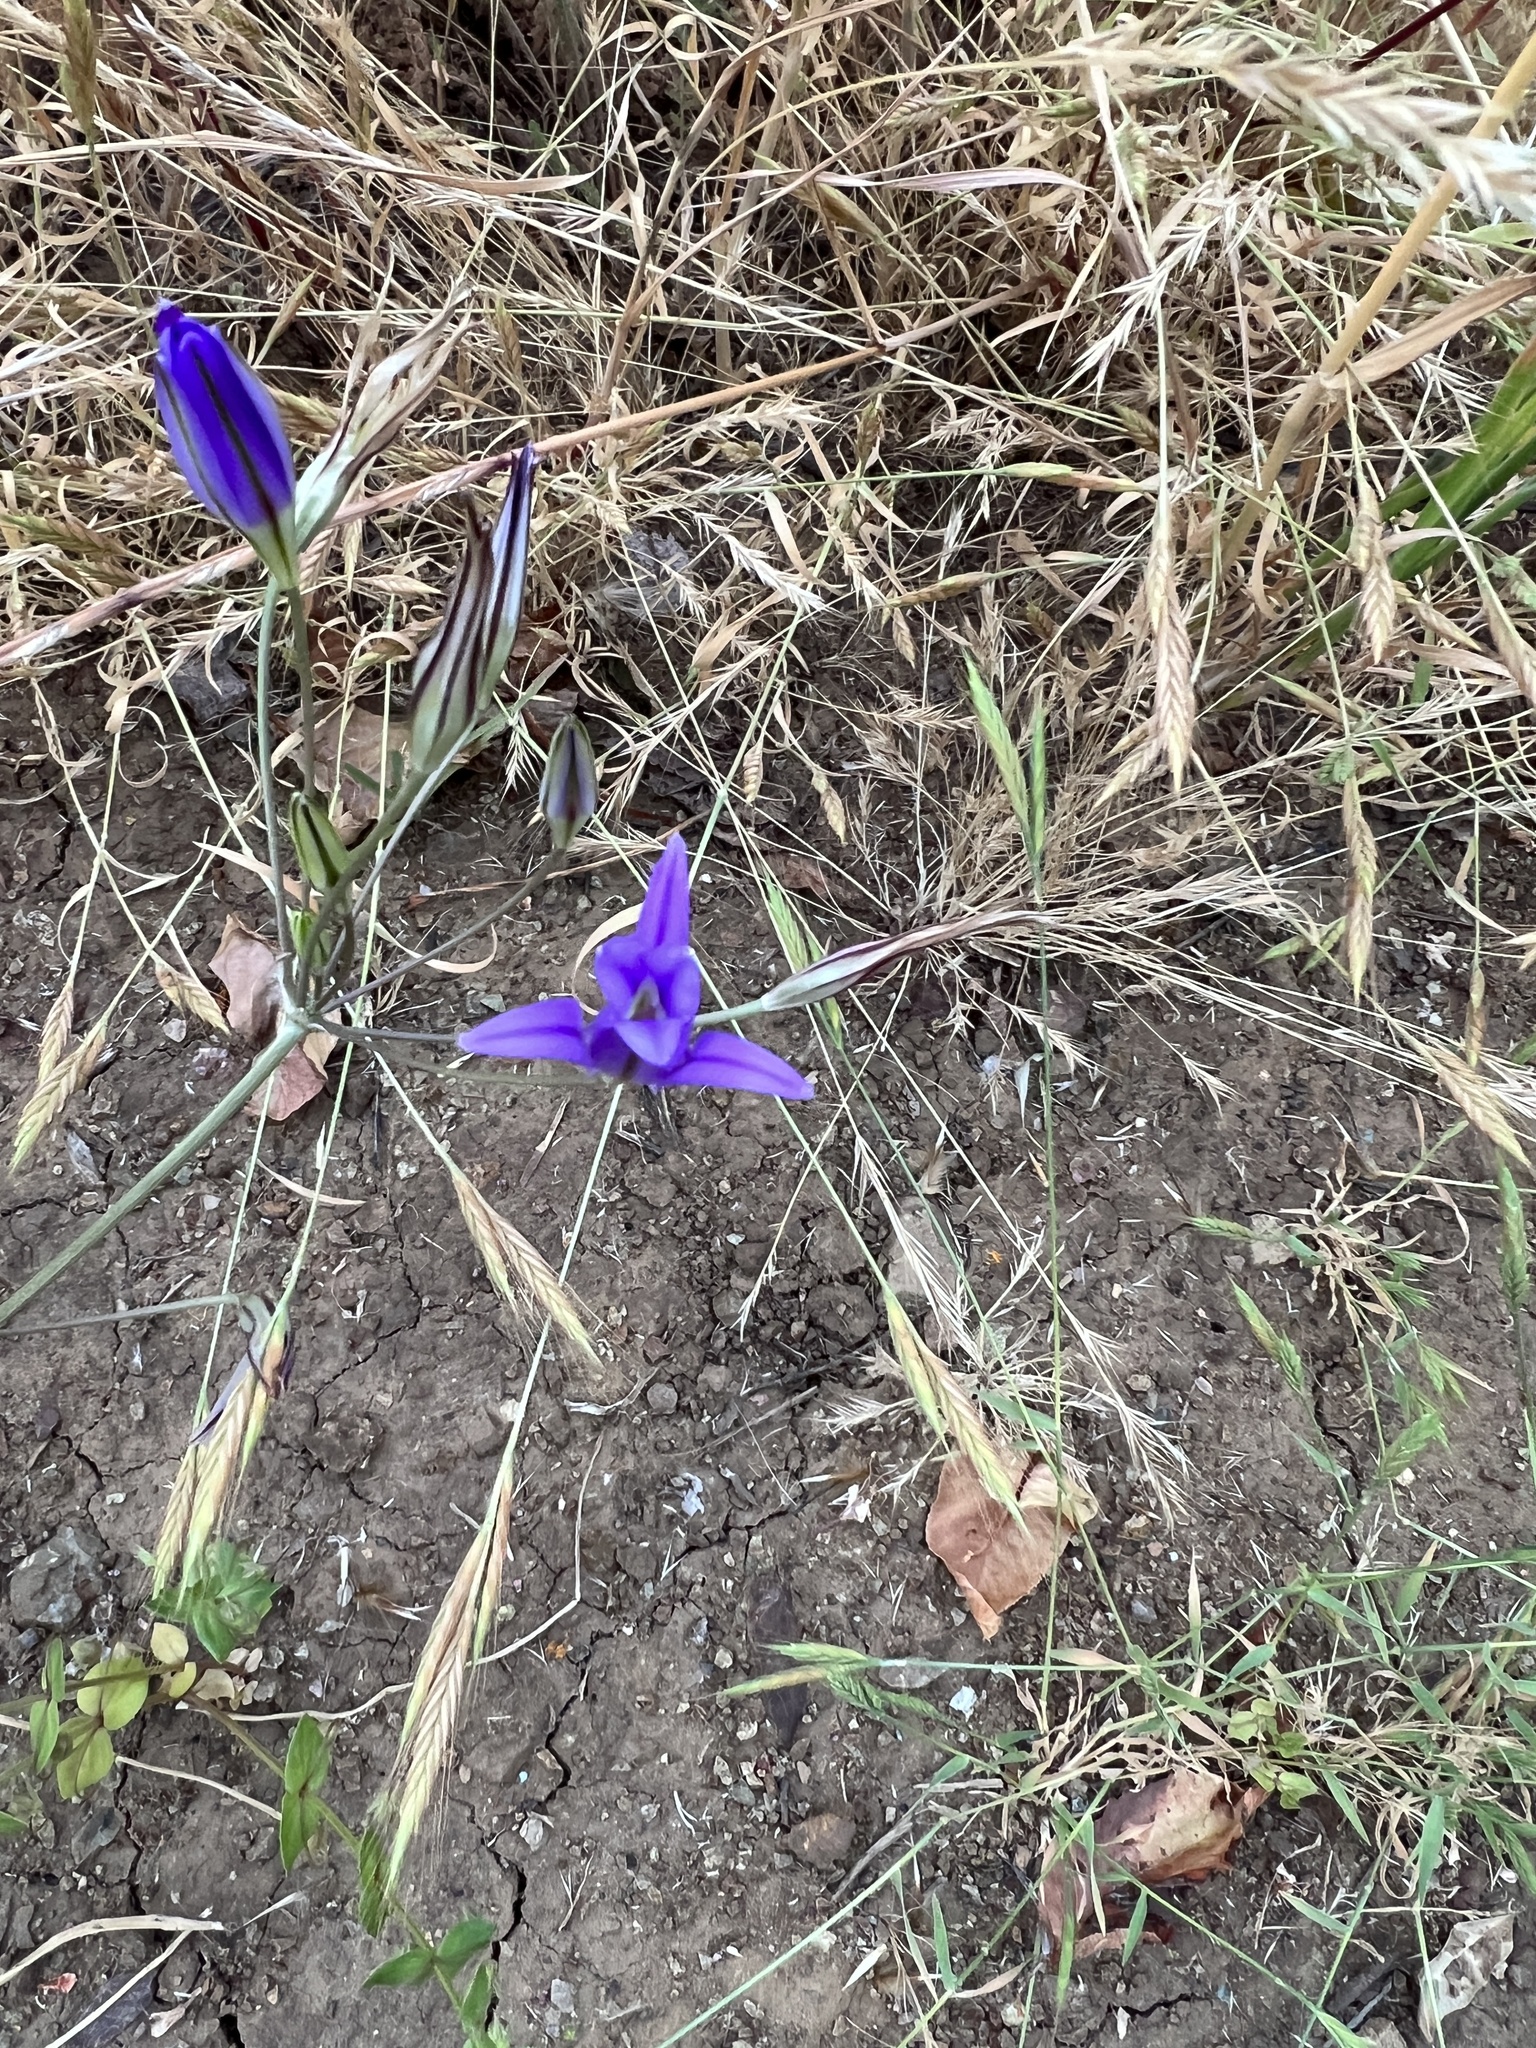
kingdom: Plantae
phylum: Tracheophyta
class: Liliopsida
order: Asparagales
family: Asparagaceae
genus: Brodiaea
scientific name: Brodiaea elegans
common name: Elegant cluster-lily
